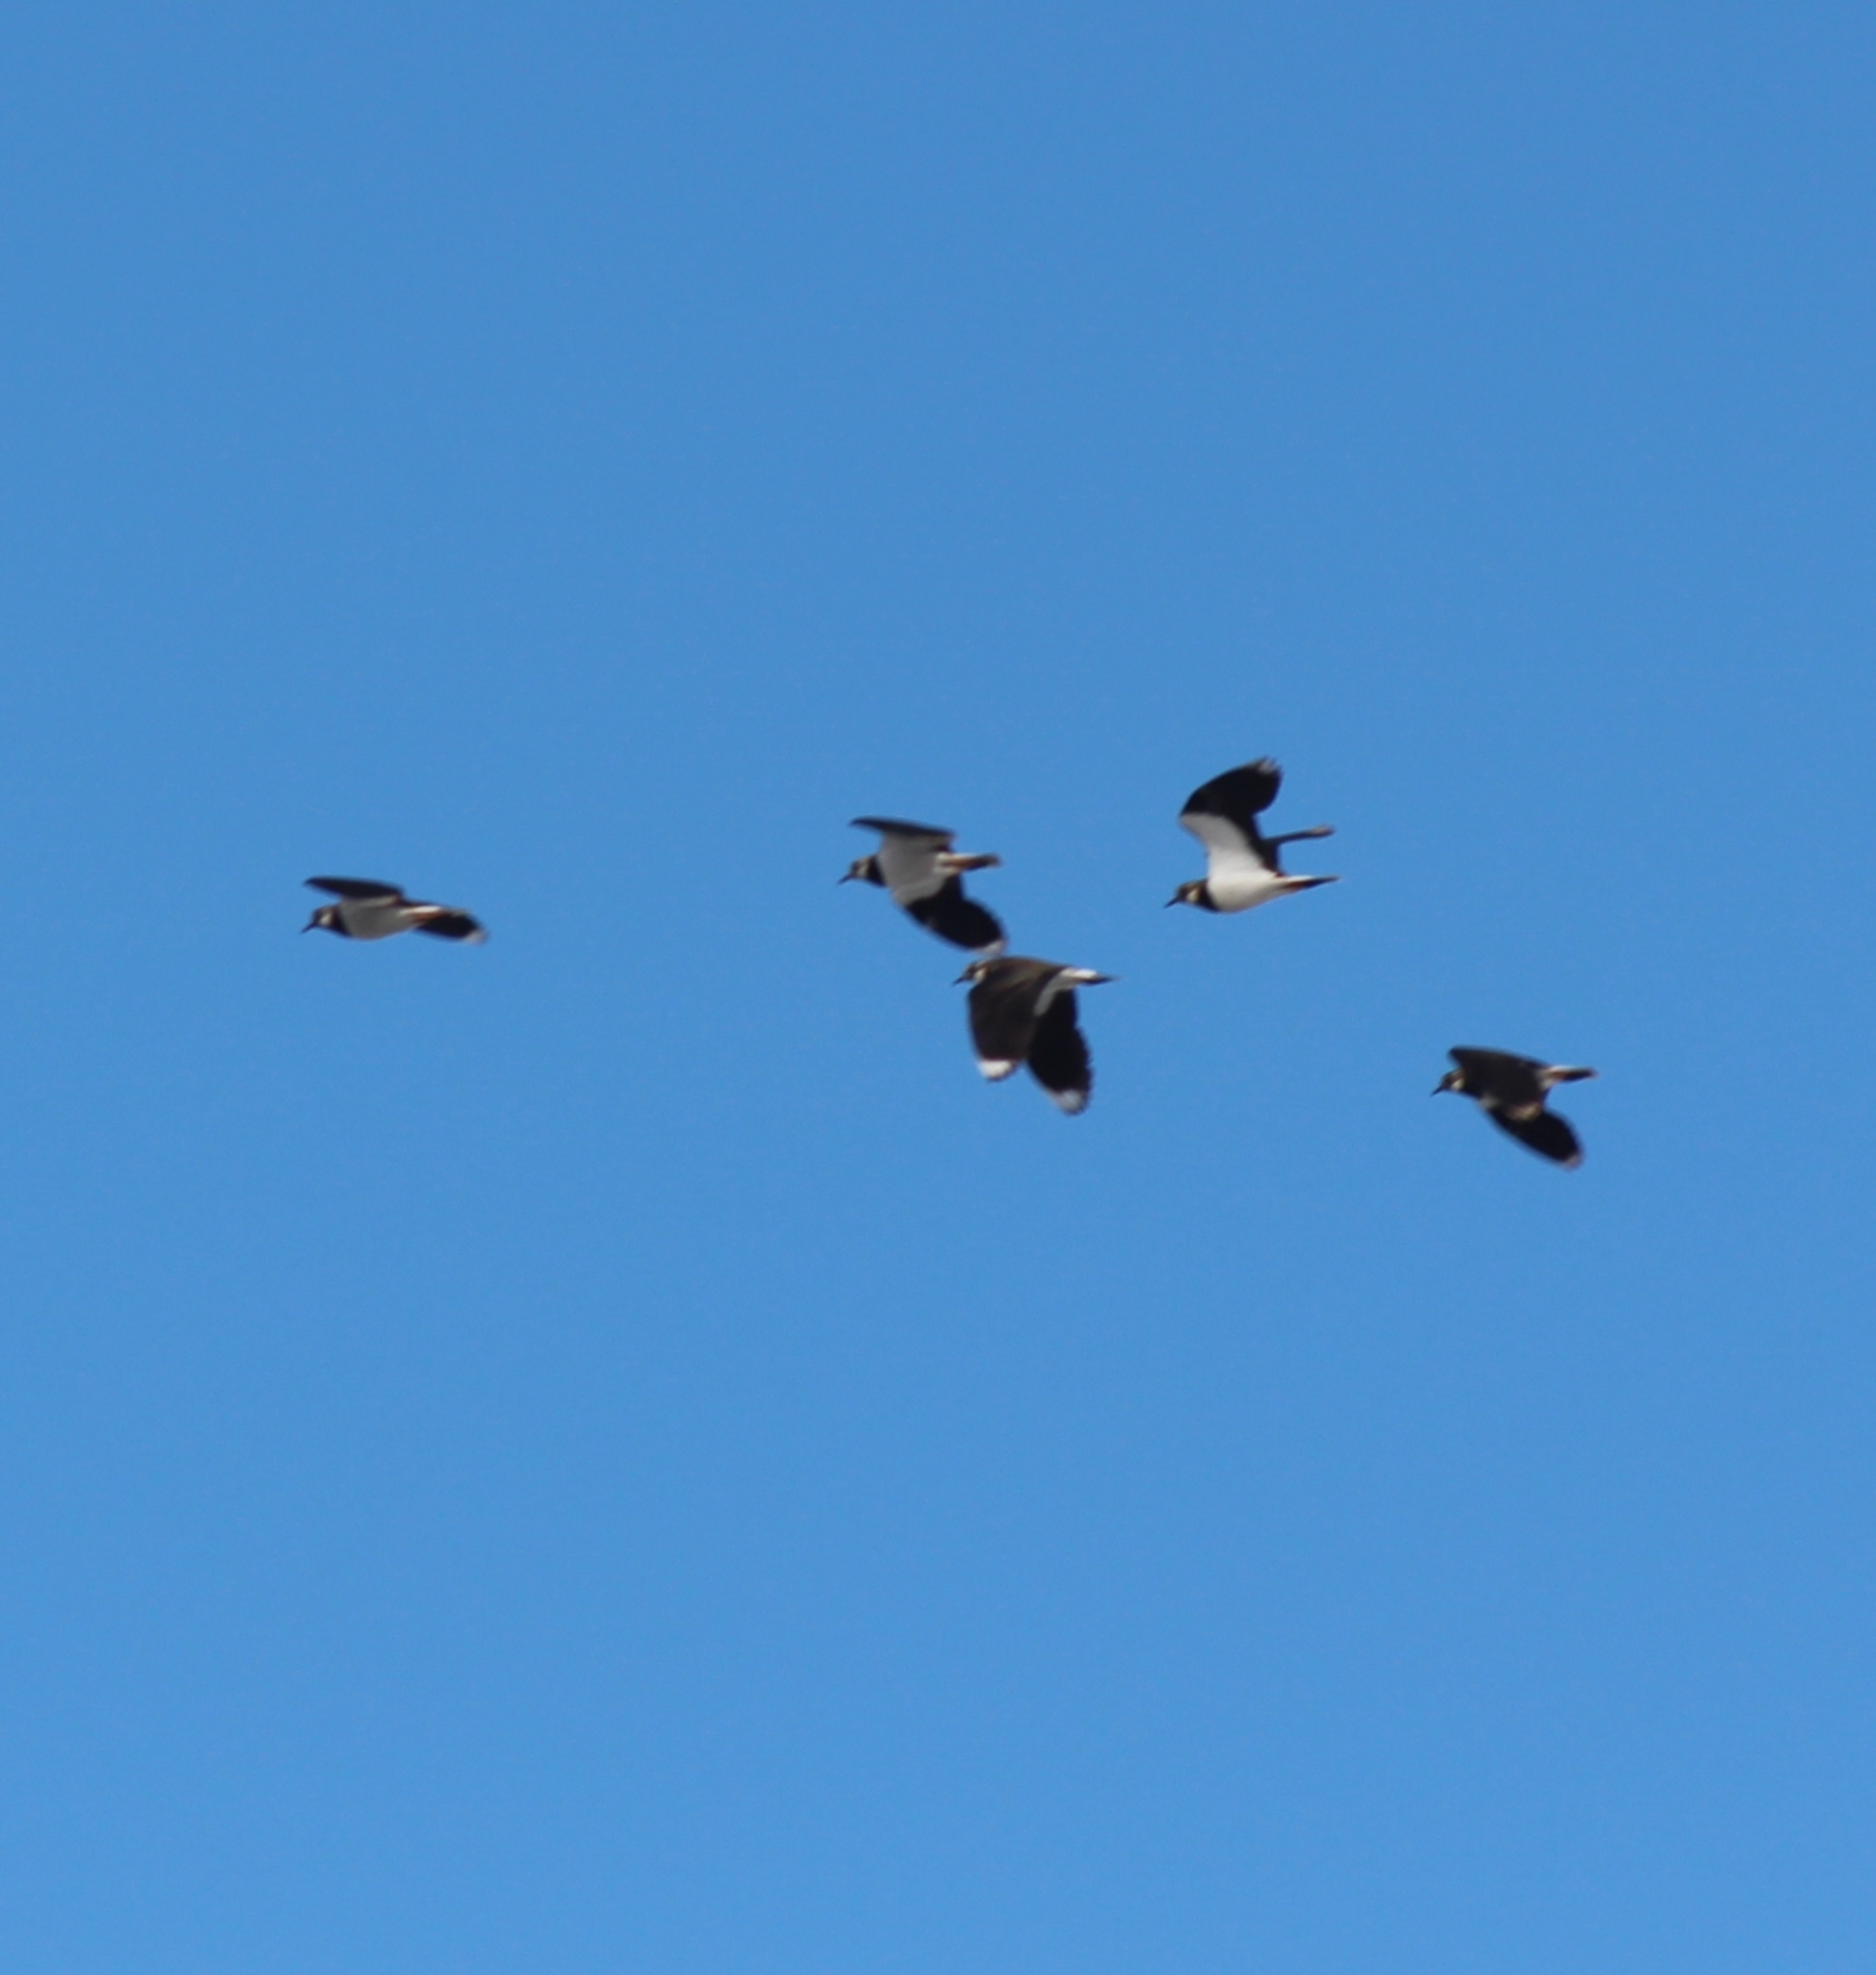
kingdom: Animalia
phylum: Chordata
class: Aves
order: Charadriiformes
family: Charadriidae
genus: Vanellus
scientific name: Vanellus vanellus
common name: Northern lapwing
